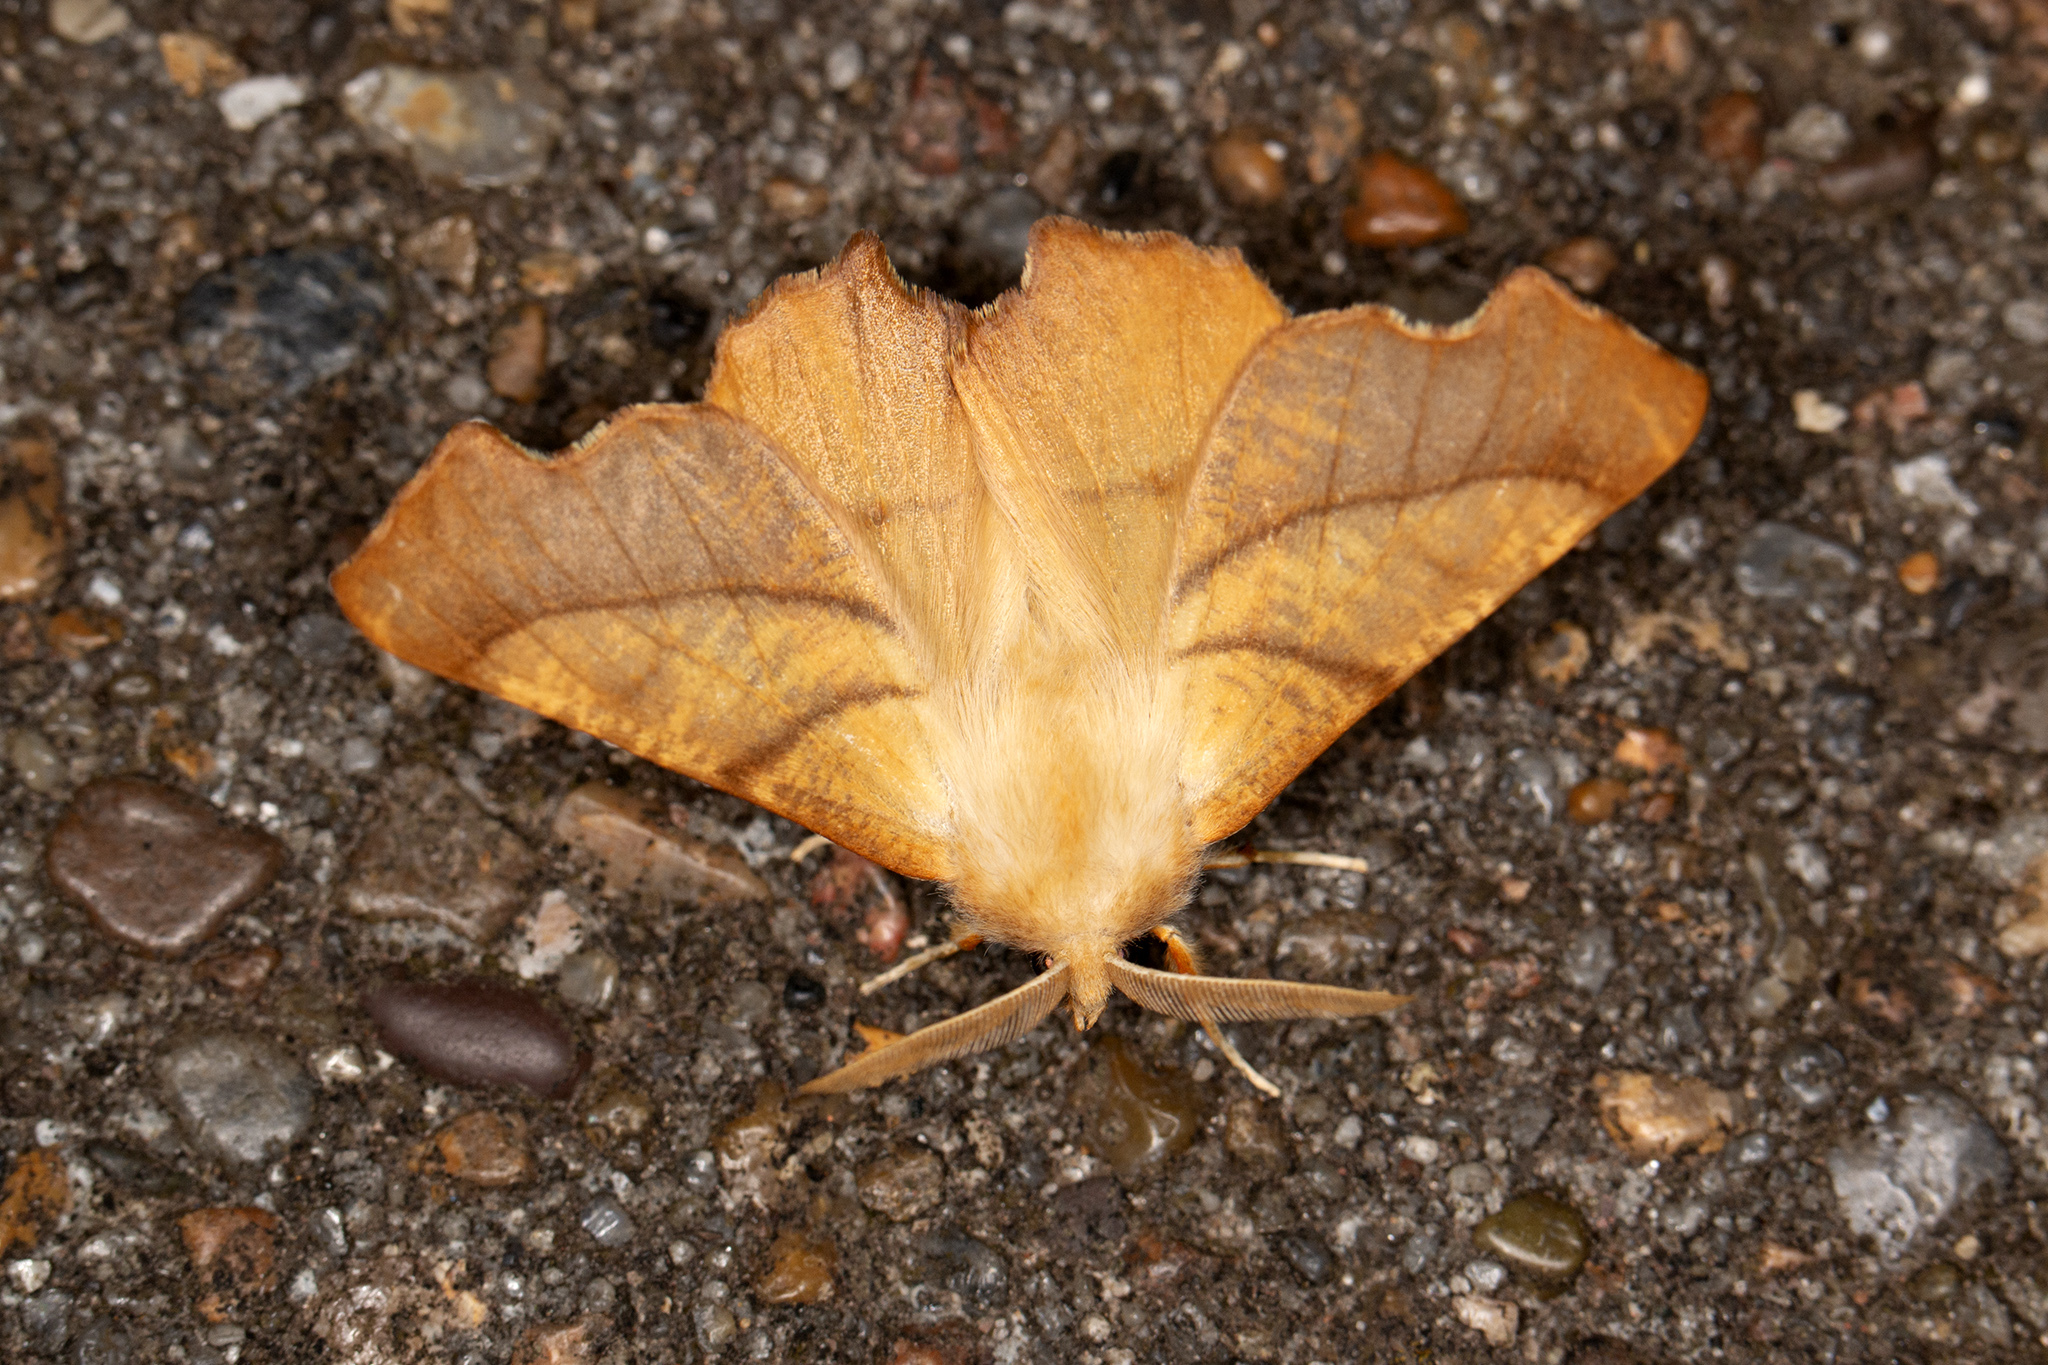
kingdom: Animalia
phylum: Arthropoda
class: Insecta
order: Lepidoptera
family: Geometridae
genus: Ennomos
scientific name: Ennomos fuscantaria
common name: Dusky thorn
